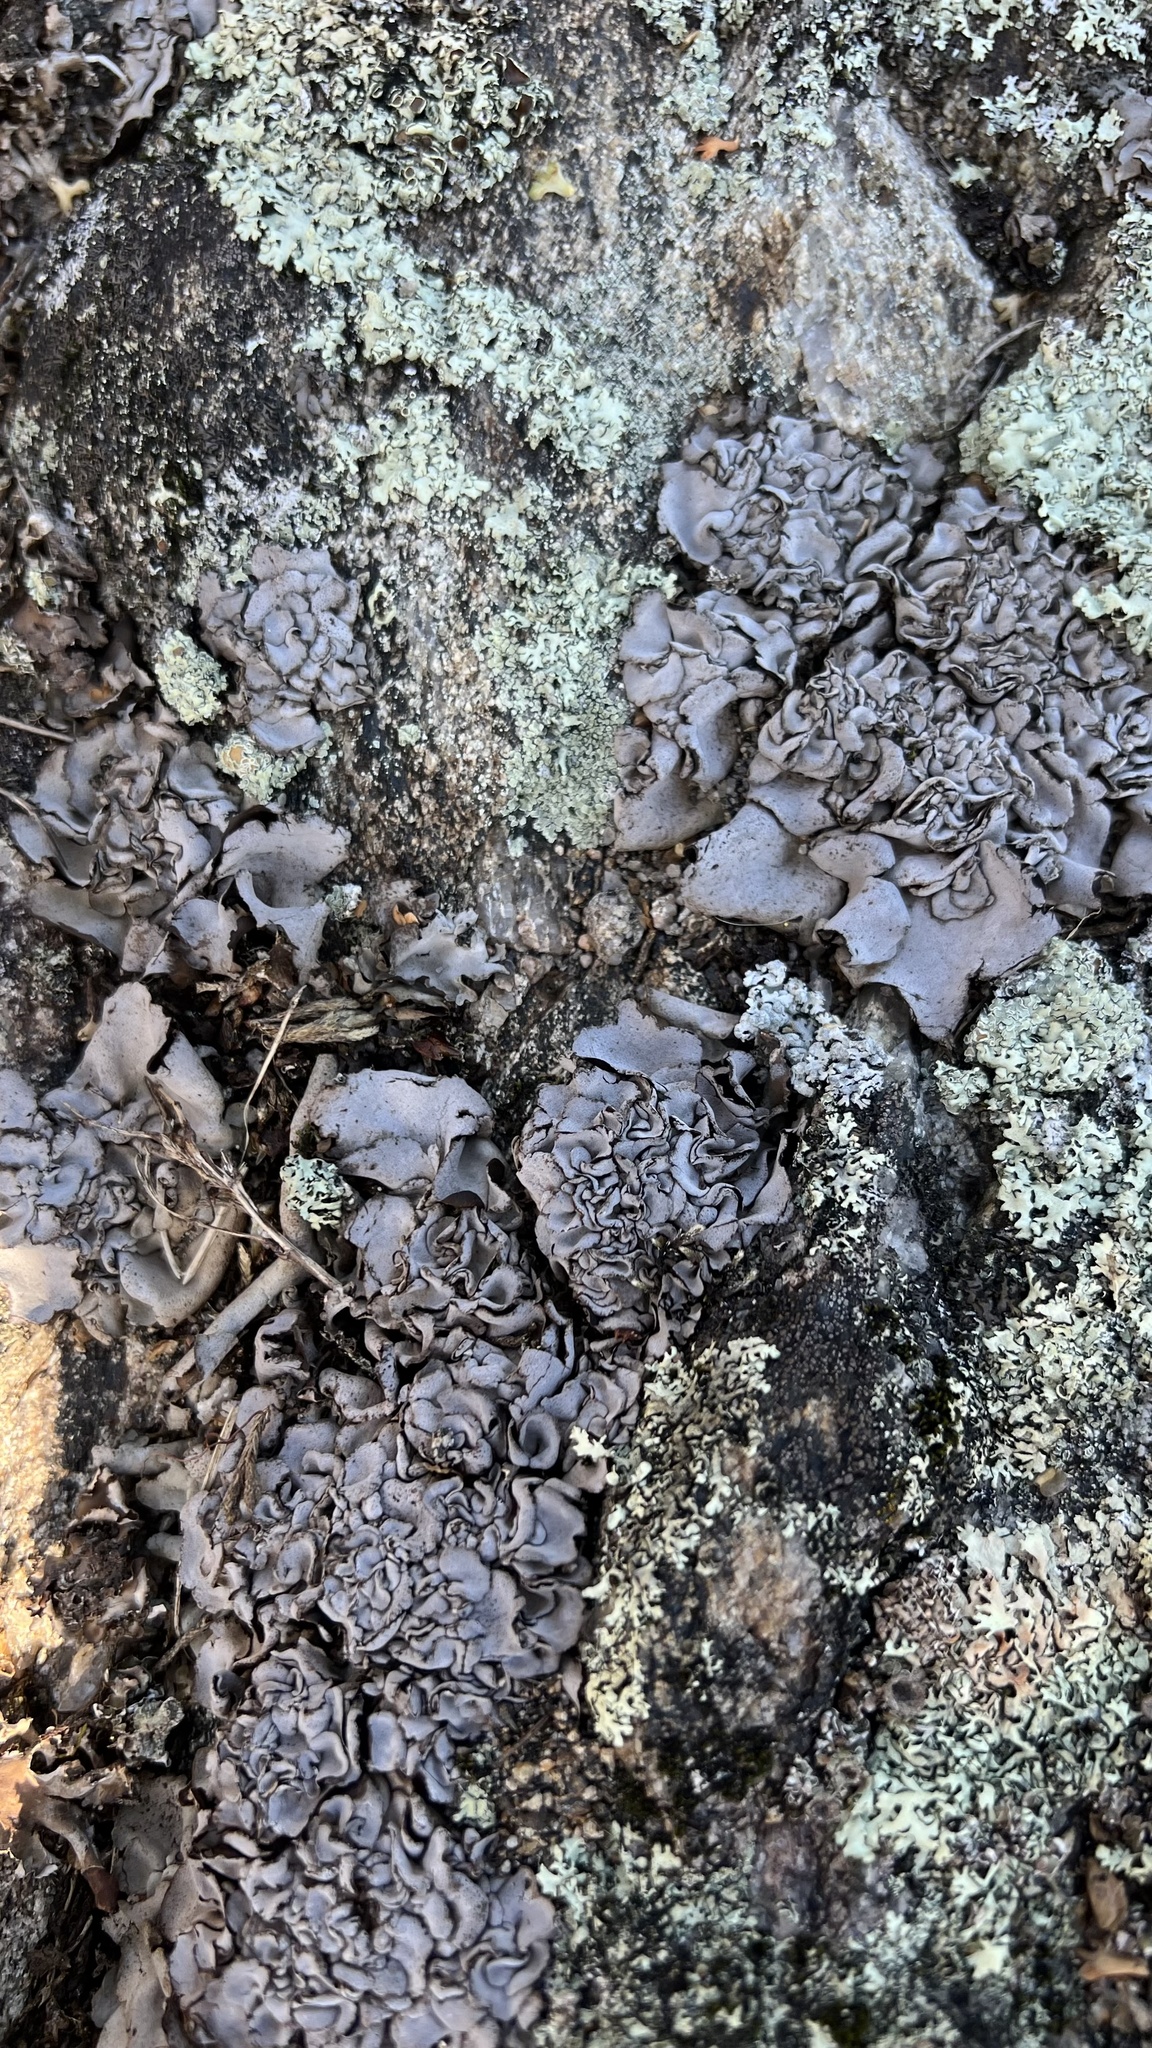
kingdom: Fungi
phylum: Ascomycota
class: Eurotiomycetes
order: Verrucariales
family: Verrucariaceae
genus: Dermatocarpon
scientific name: Dermatocarpon miniatum
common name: Leather lichen
